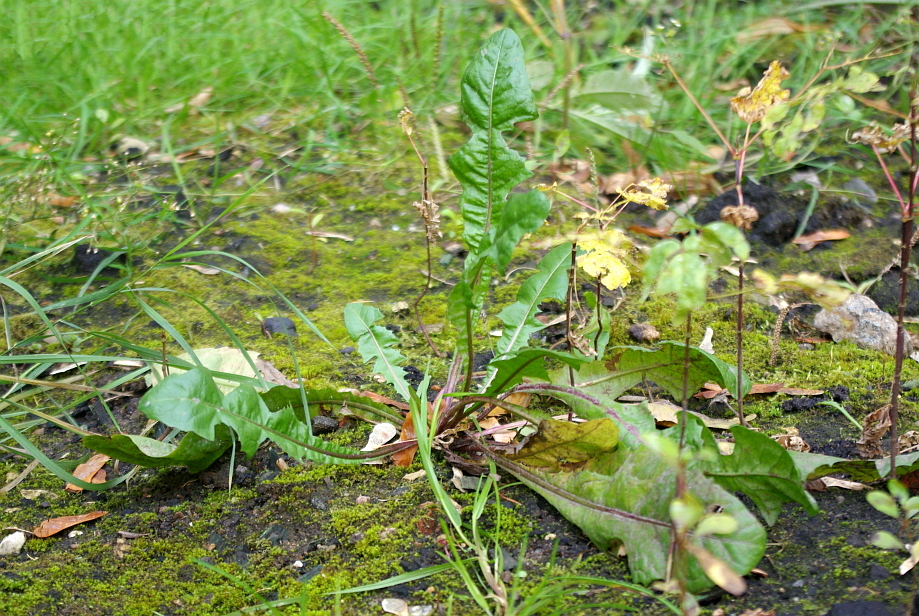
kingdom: Plantae
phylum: Tracheophyta
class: Magnoliopsida
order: Asterales
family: Asteraceae
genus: Taraxacum
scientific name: Taraxacum officinale
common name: Common dandelion
